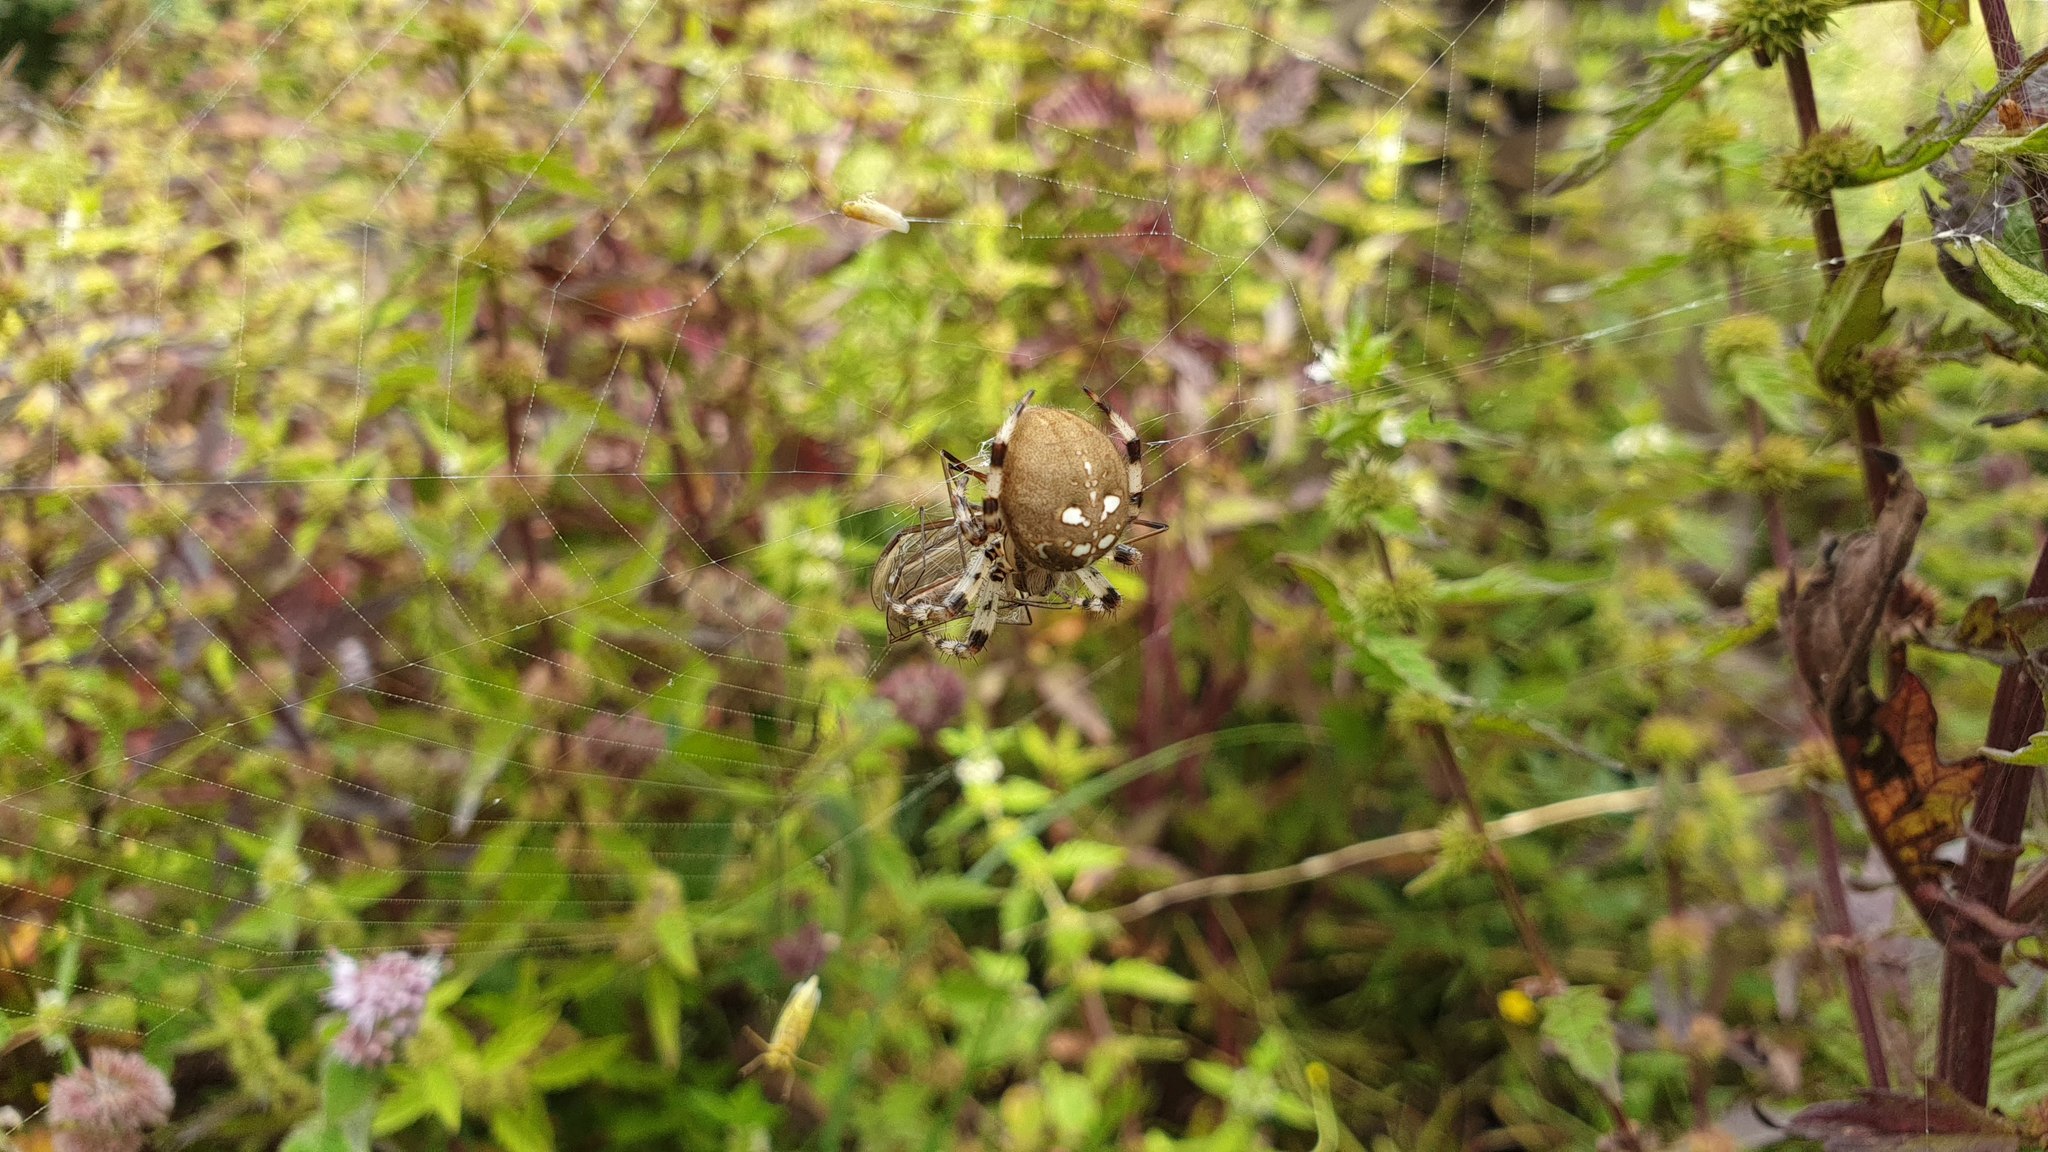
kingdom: Animalia
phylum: Arthropoda
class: Arachnida
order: Araneae
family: Araneidae
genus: Araneus
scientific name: Araneus quadratus
